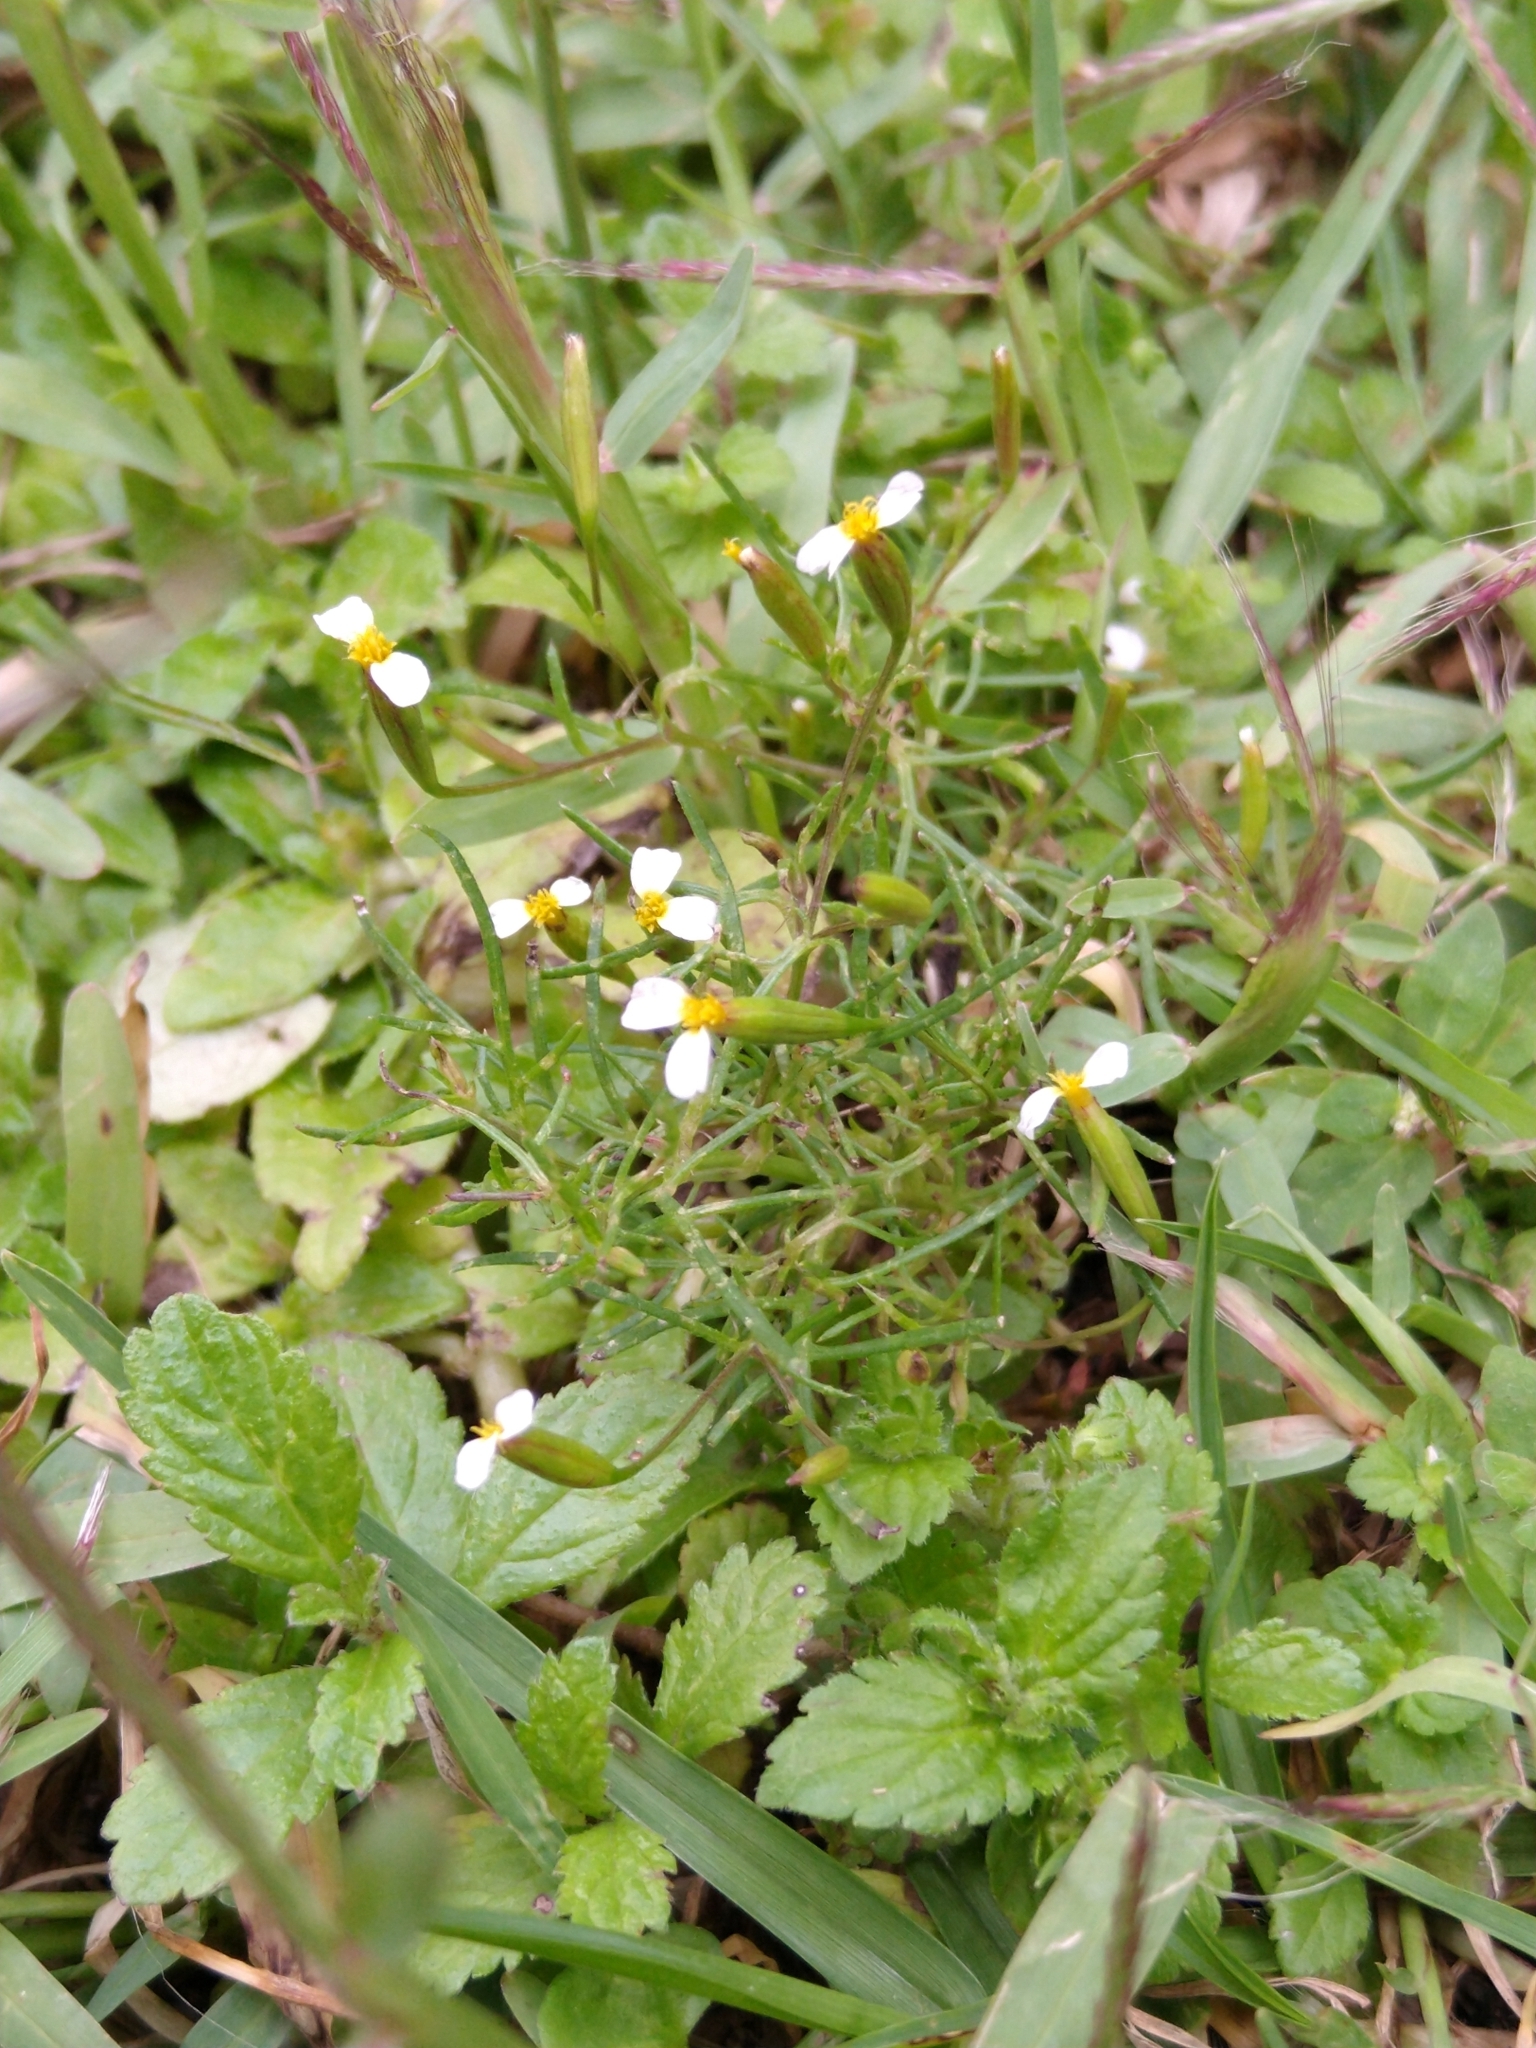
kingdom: Plantae
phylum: Tracheophyta
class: Magnoliopsida
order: Asterales
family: Asteraceae
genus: Tagetes
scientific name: Tagetes filifolia
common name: Lesser marigold
